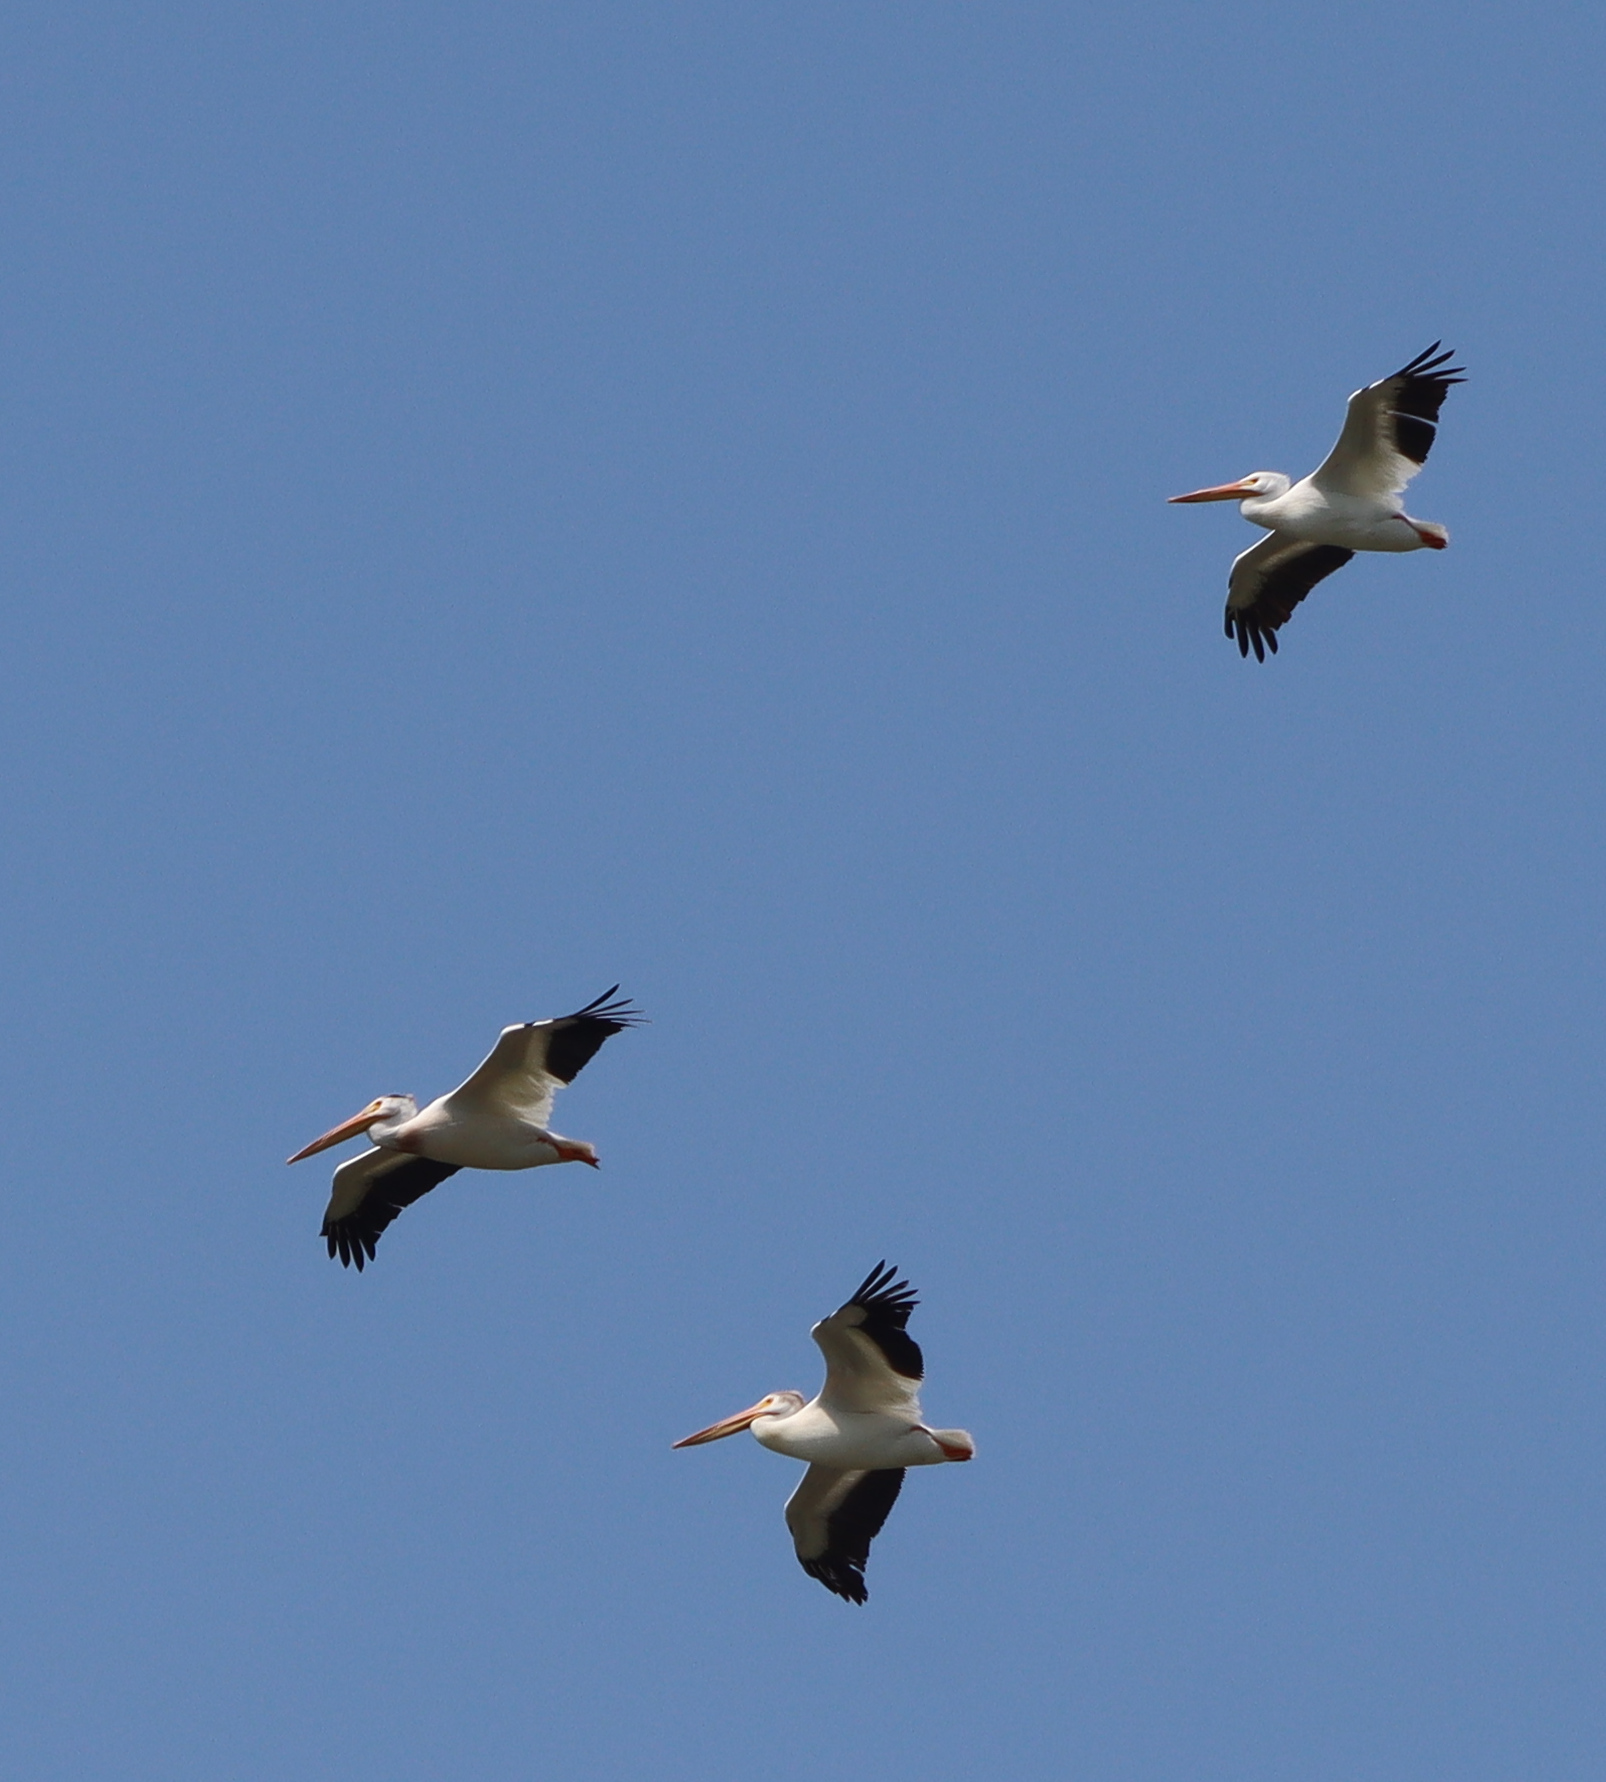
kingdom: Animalia
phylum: Chordata
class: Aves
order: Pelecaniformes
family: Pelecanidae
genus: Pelecanus
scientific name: Pelecanus erythrorhynchos
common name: American white pelican
